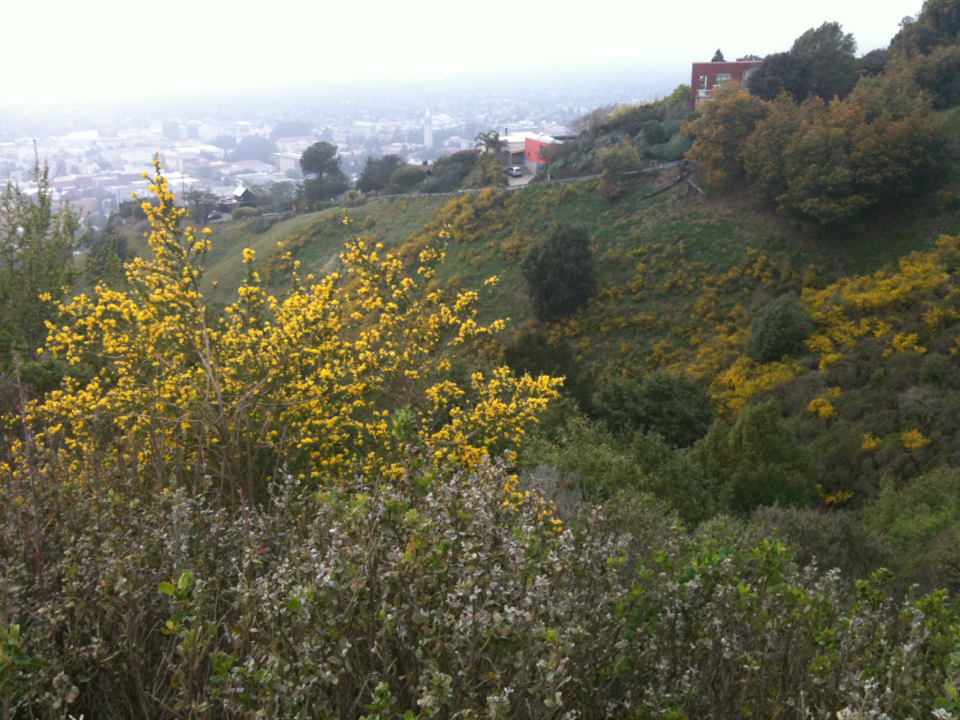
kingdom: Plantae
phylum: Tracheophyta
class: Magnoliopsida
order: Fabales
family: Fabaceae
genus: Genista
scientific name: Genista monspessulana
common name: Montpellier broom
